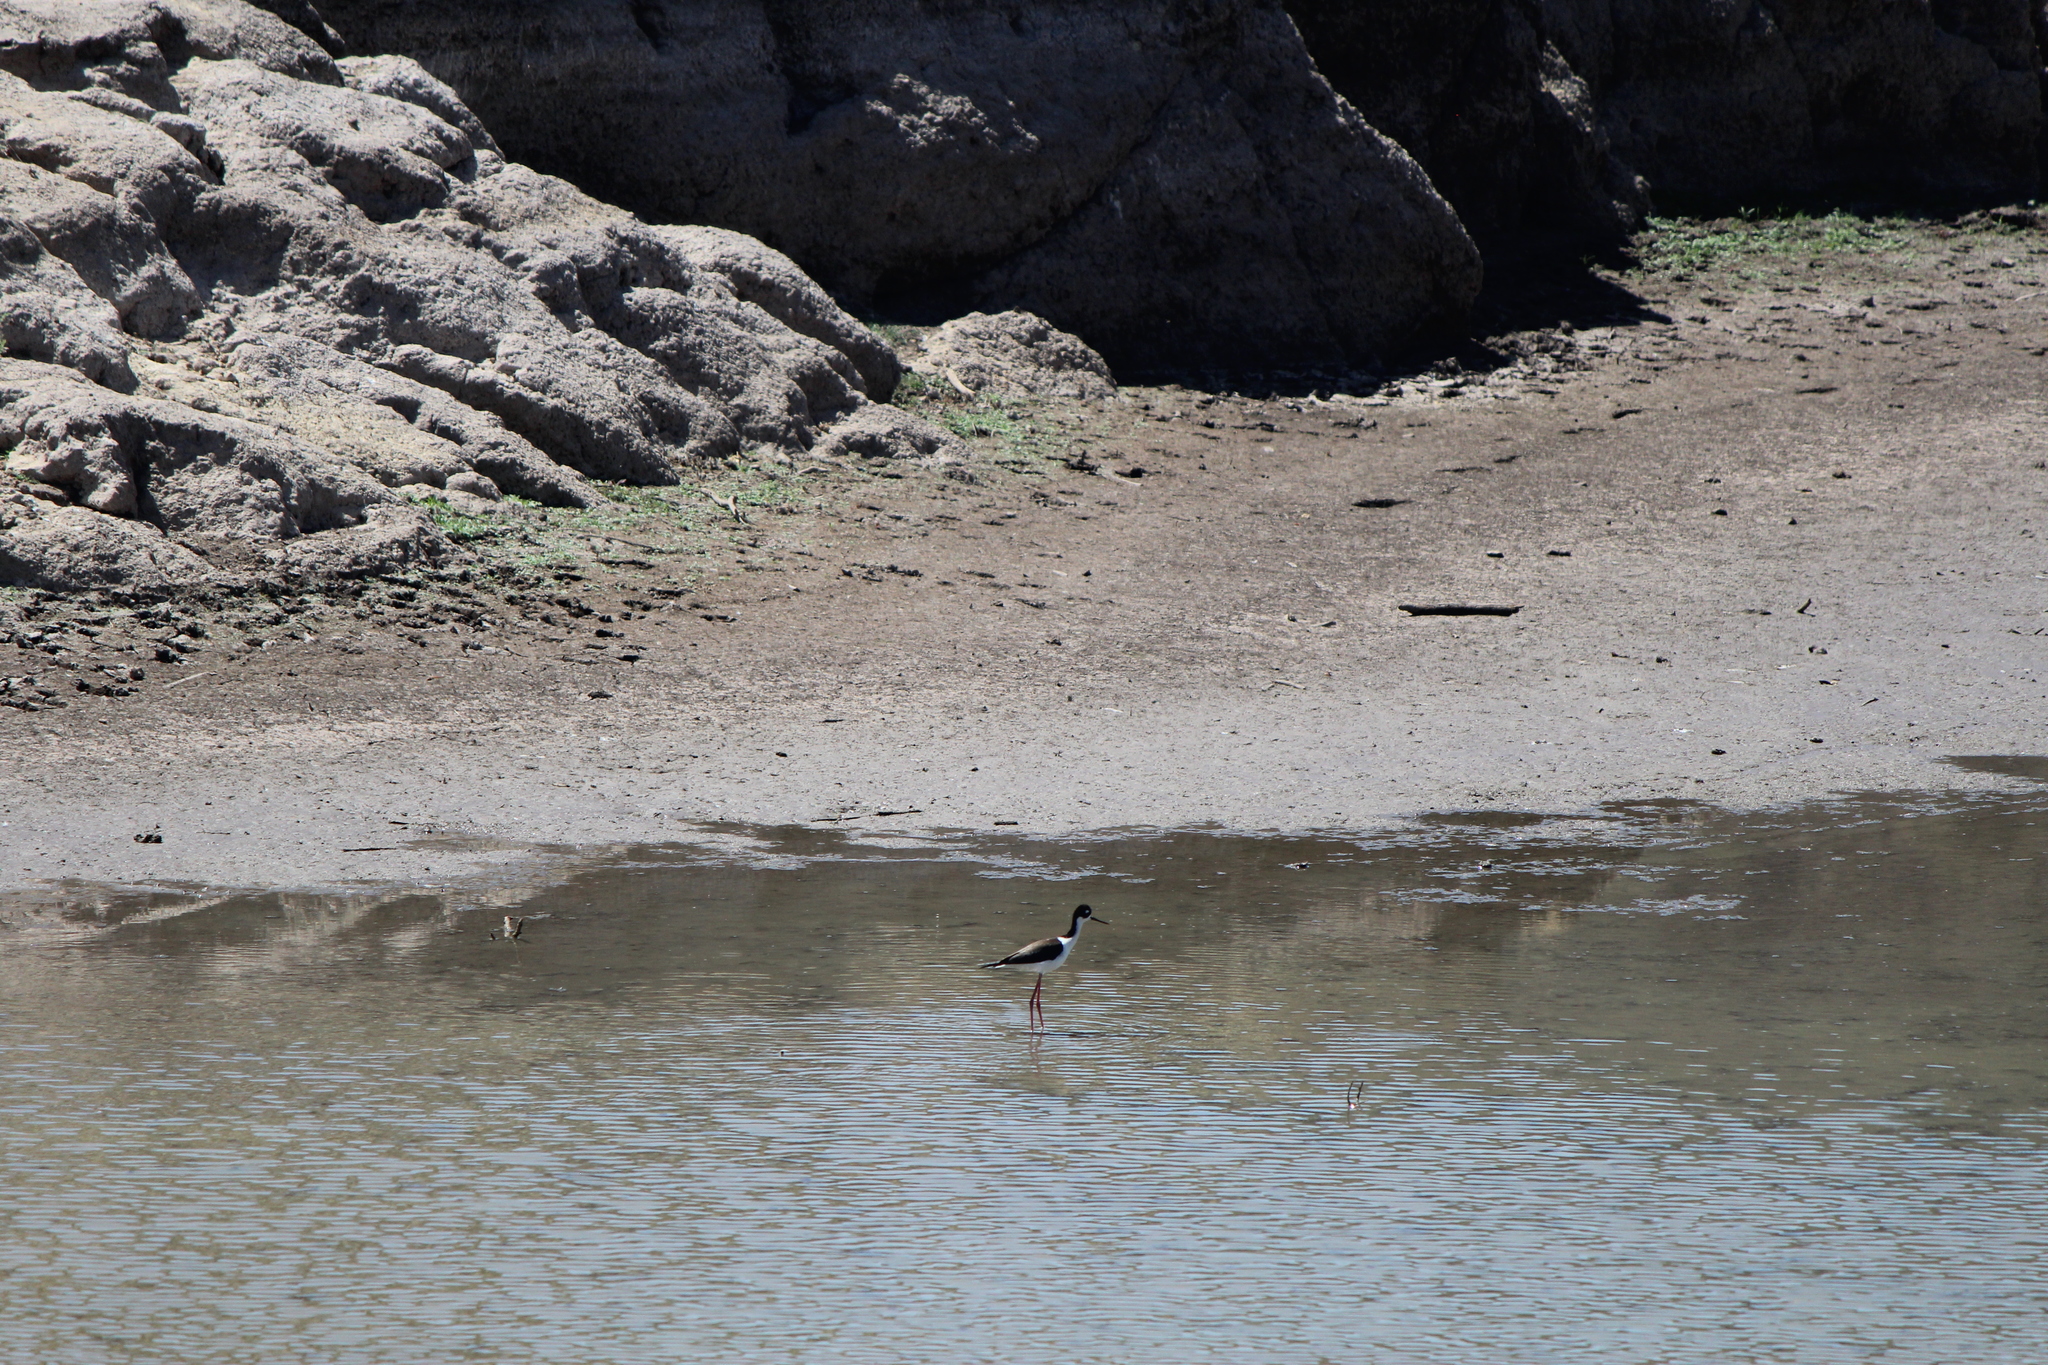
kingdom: Animalia
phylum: Chordata
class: Aves
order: Charadriiformes
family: Recurvirostridae
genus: Himantopus
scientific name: Himantopus mexicanus
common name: Black-necked stilt
